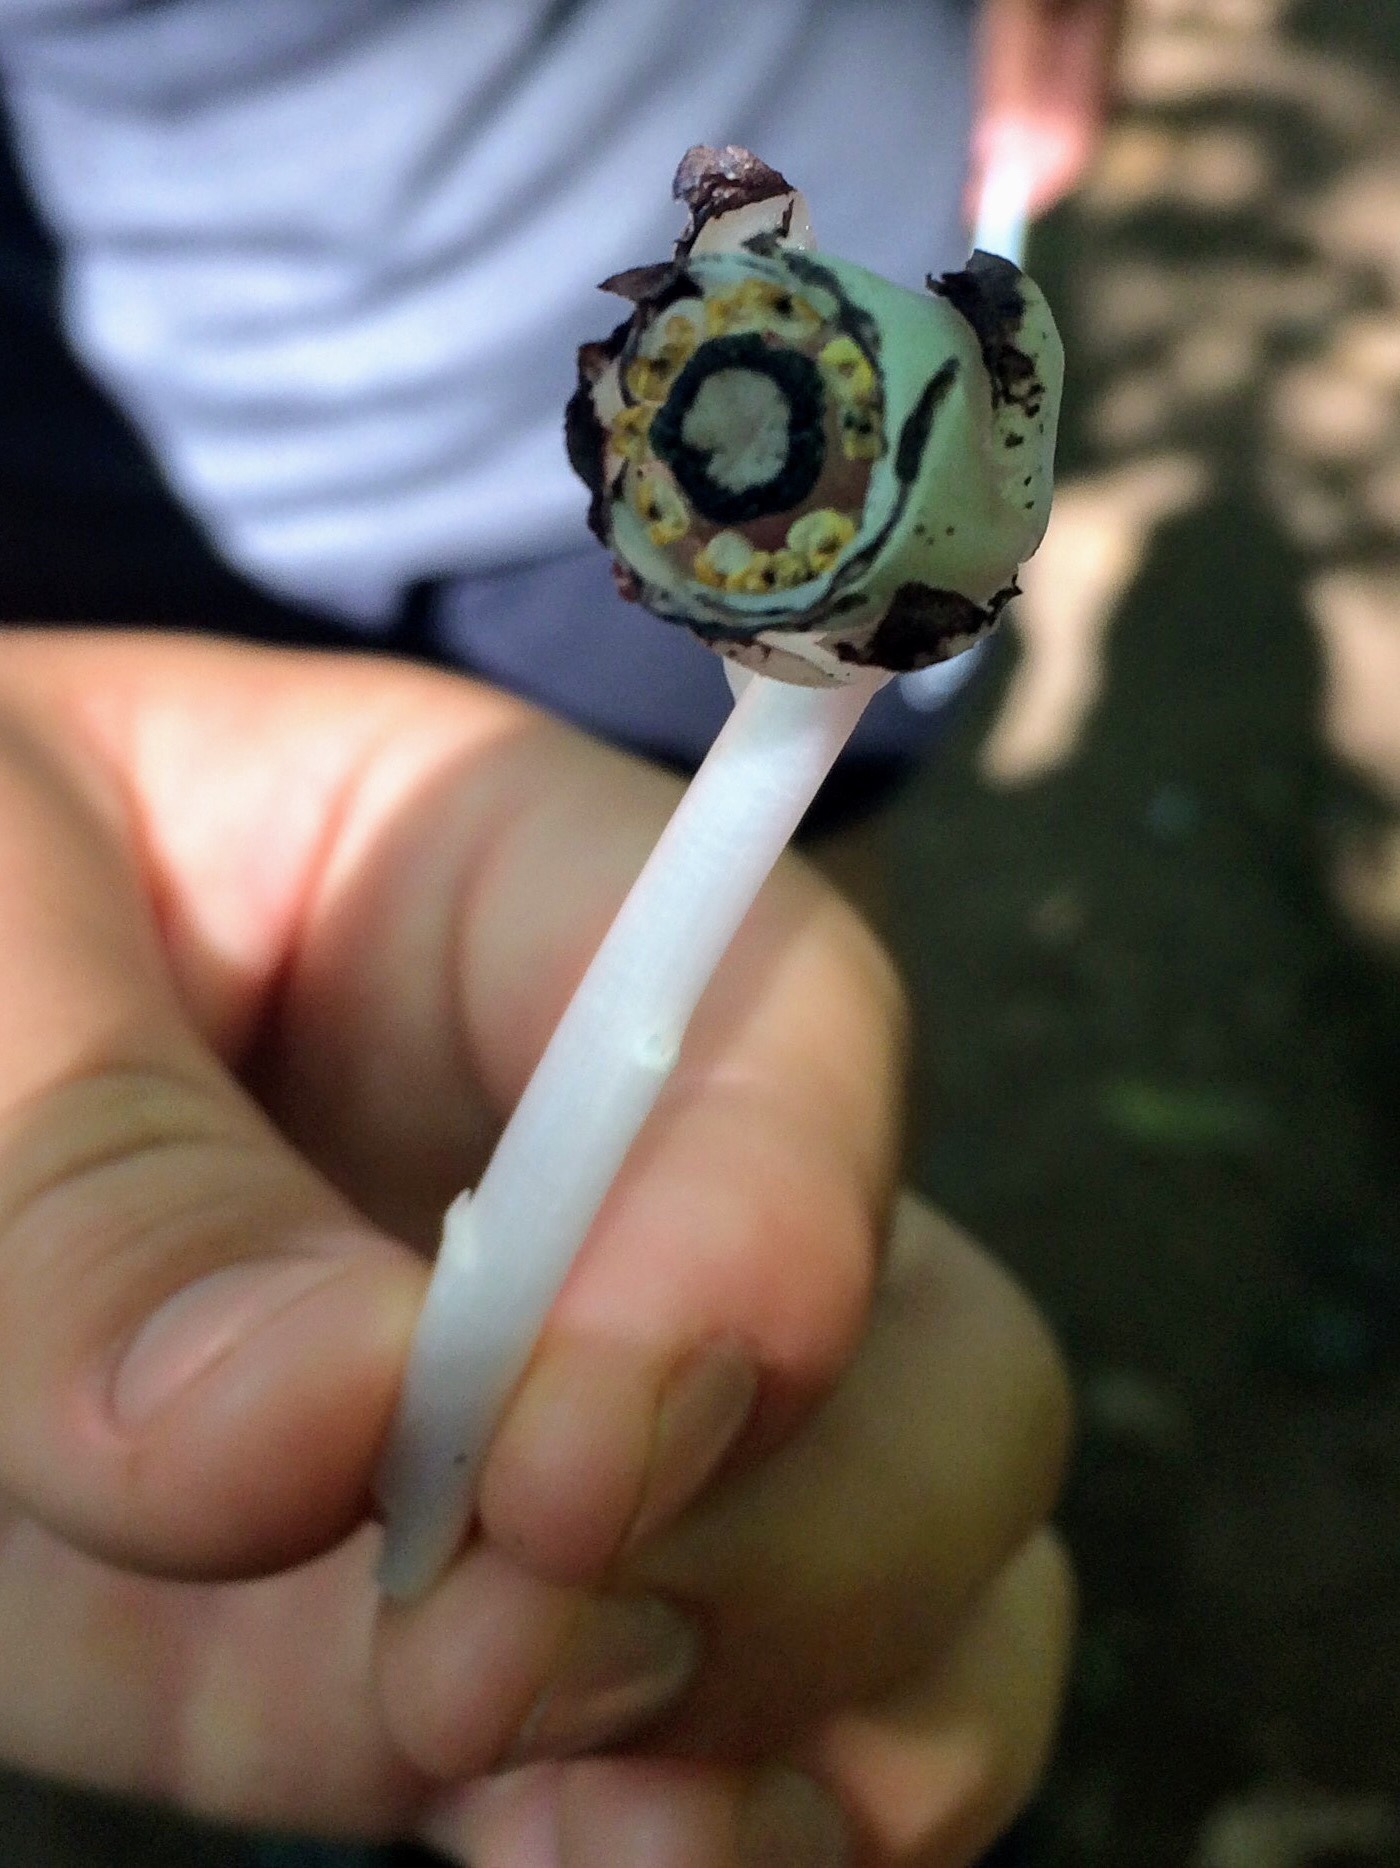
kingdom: Plantae
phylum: Tracheophyta
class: Magnoliopsida
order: Ericales
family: Ericaceae
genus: Monotropa
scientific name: Monotropa uniflora
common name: Convulsion root
